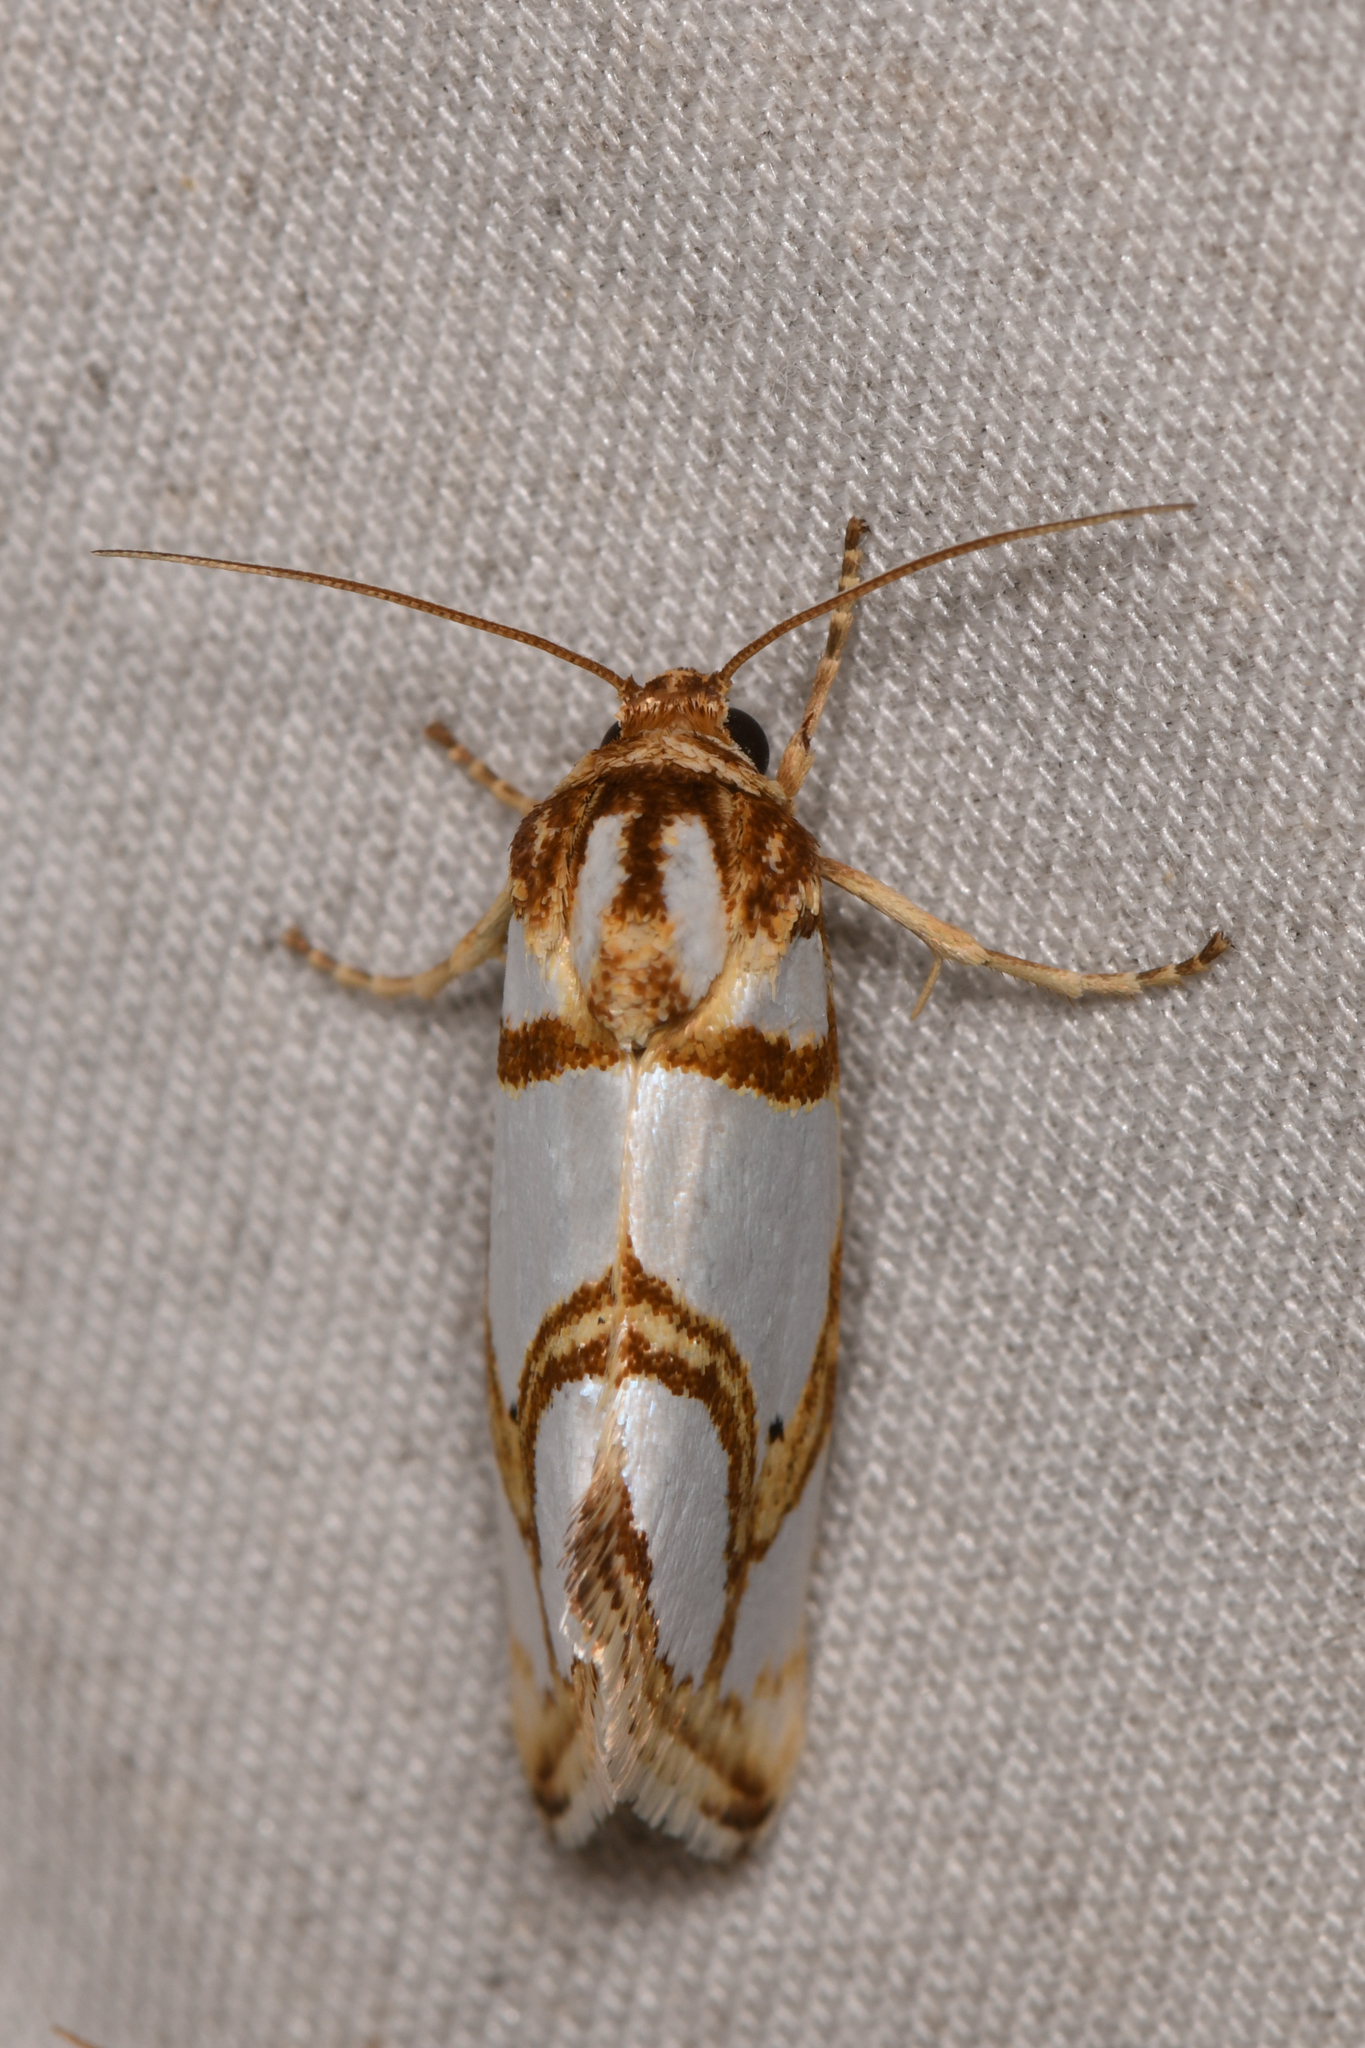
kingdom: Animalia
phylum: Arthropoda
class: Insecta
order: Lepidoptera
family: Noctuidae
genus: Argentostiria
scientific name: Argentostiria koebelei
